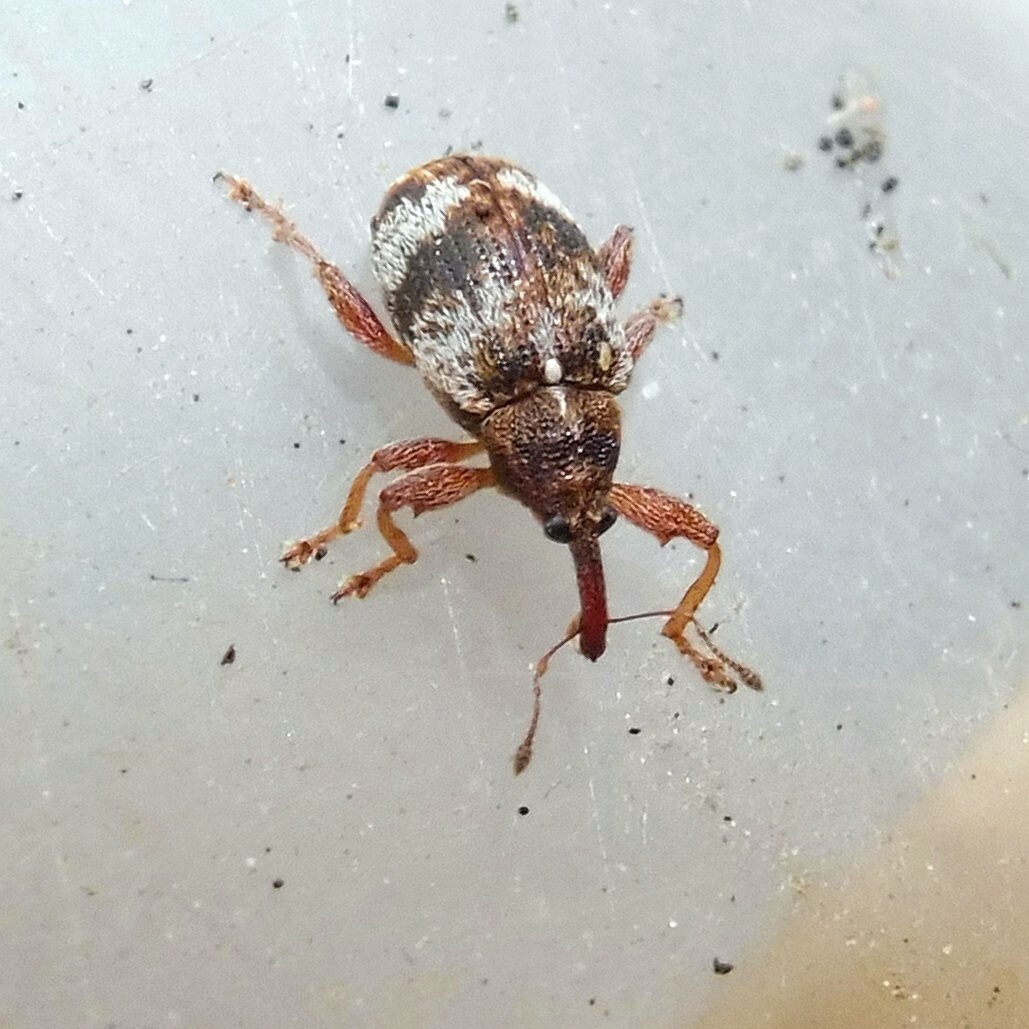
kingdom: Animalia
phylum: Arthropoda
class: Insecta
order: Coleoptera
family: Curculionidae
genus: Anthonomus
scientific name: Anthonomus pedicularius
